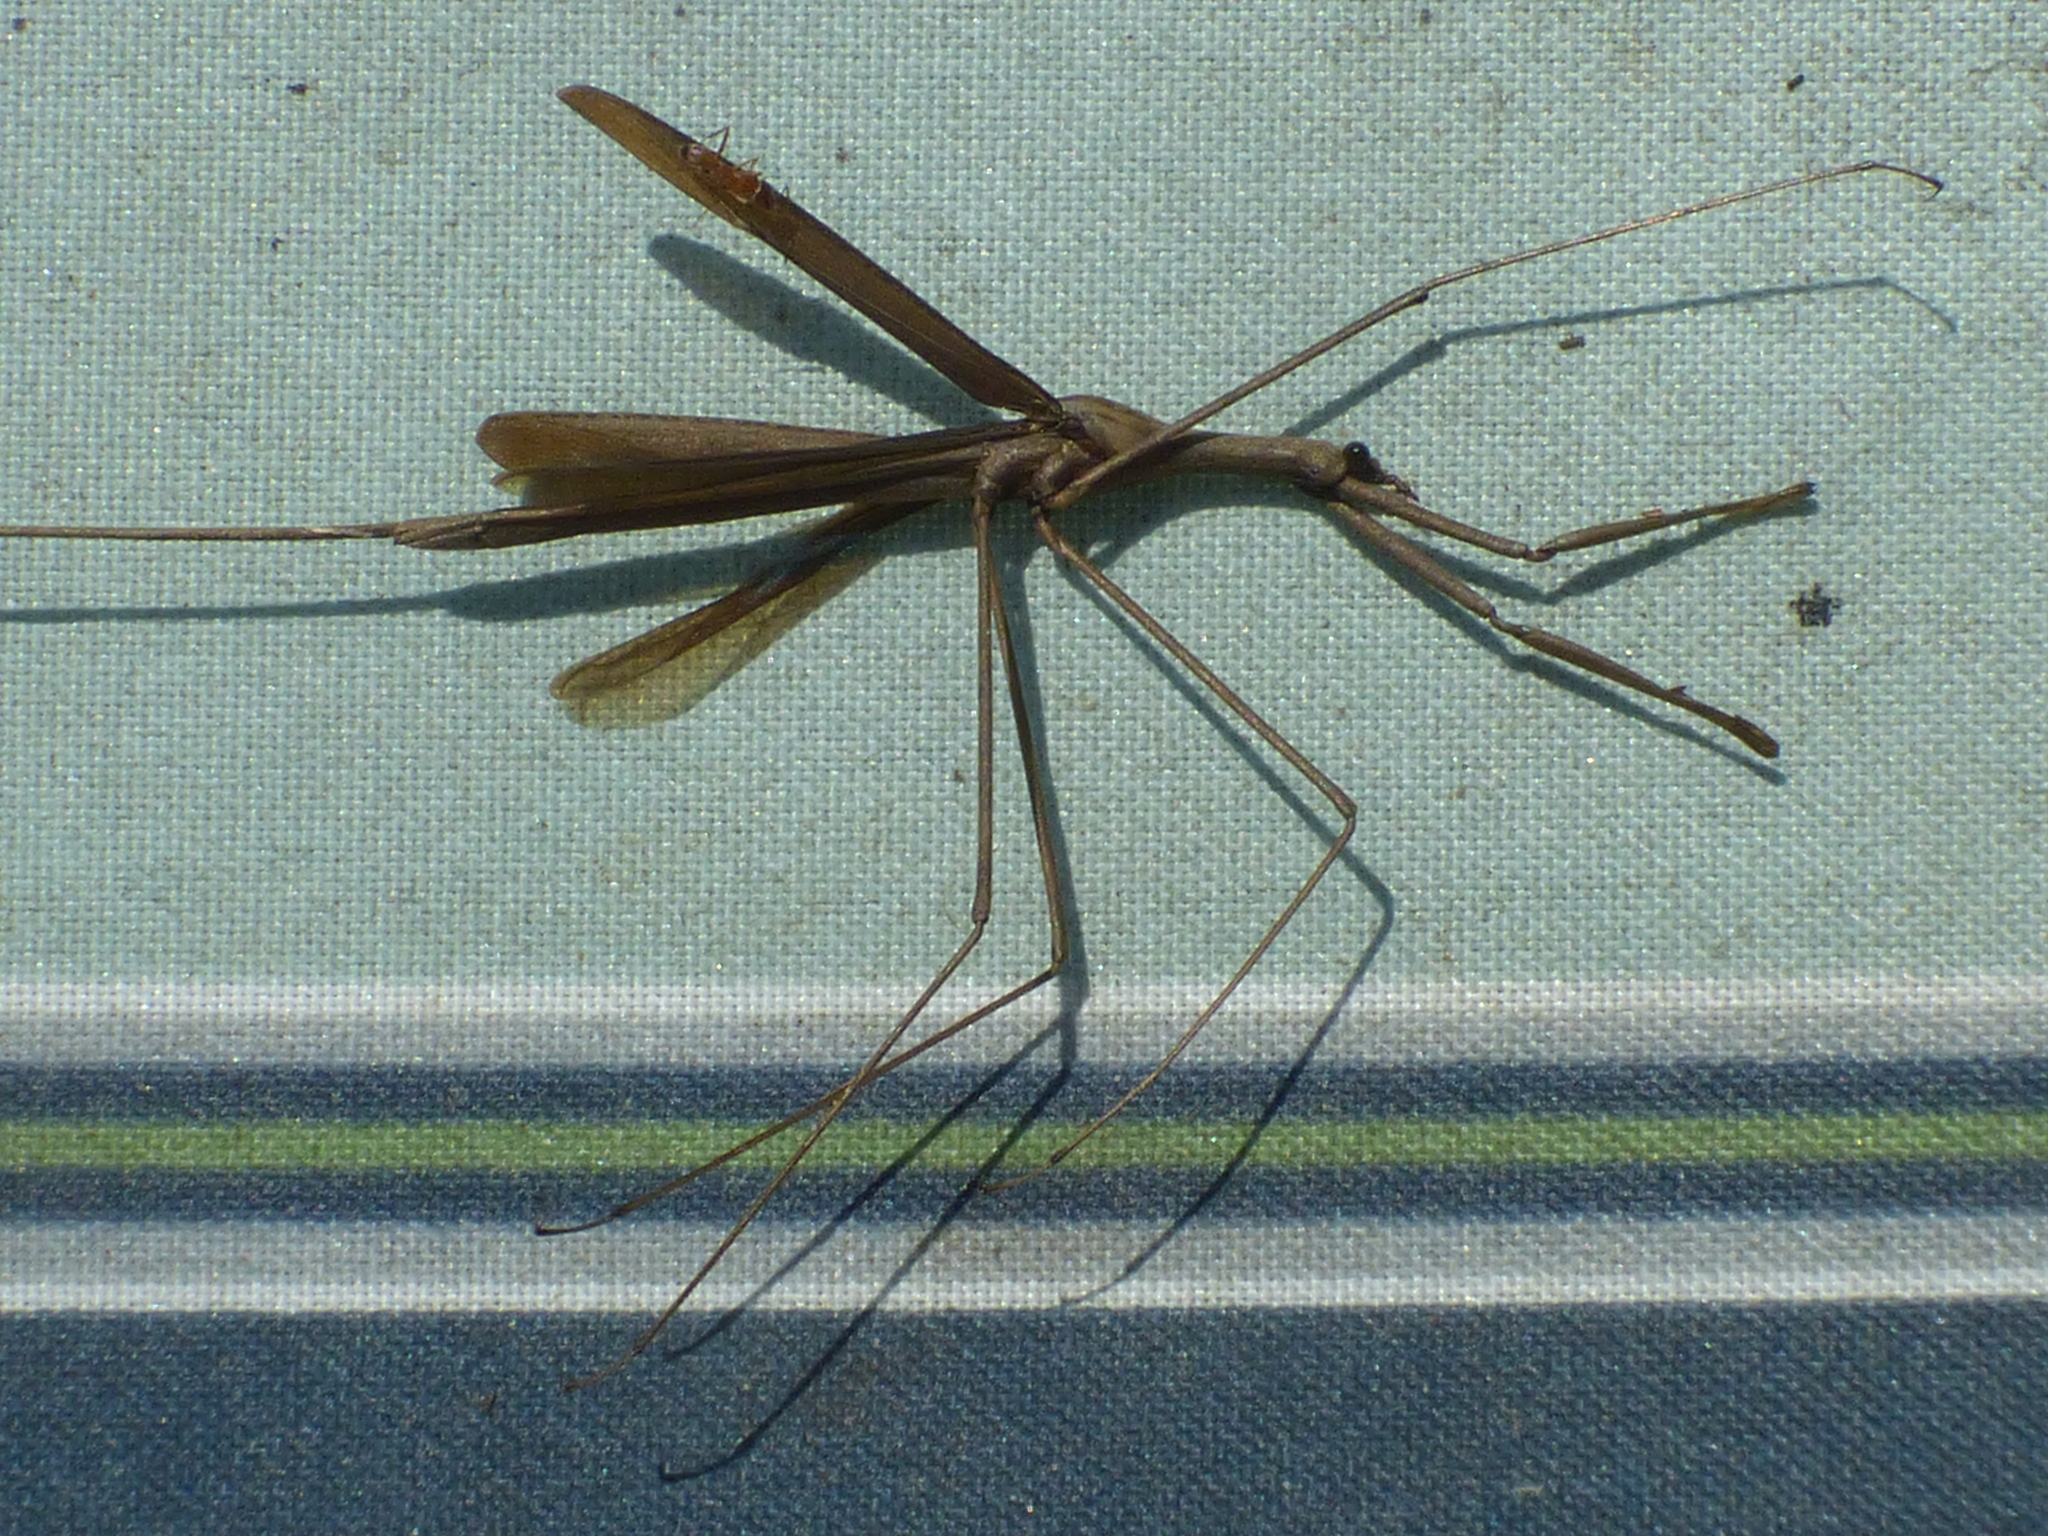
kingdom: Animalia
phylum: Arthropoda
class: Insecta
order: Hemiptera
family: Nepidae
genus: Ranatra
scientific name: Ranatra
